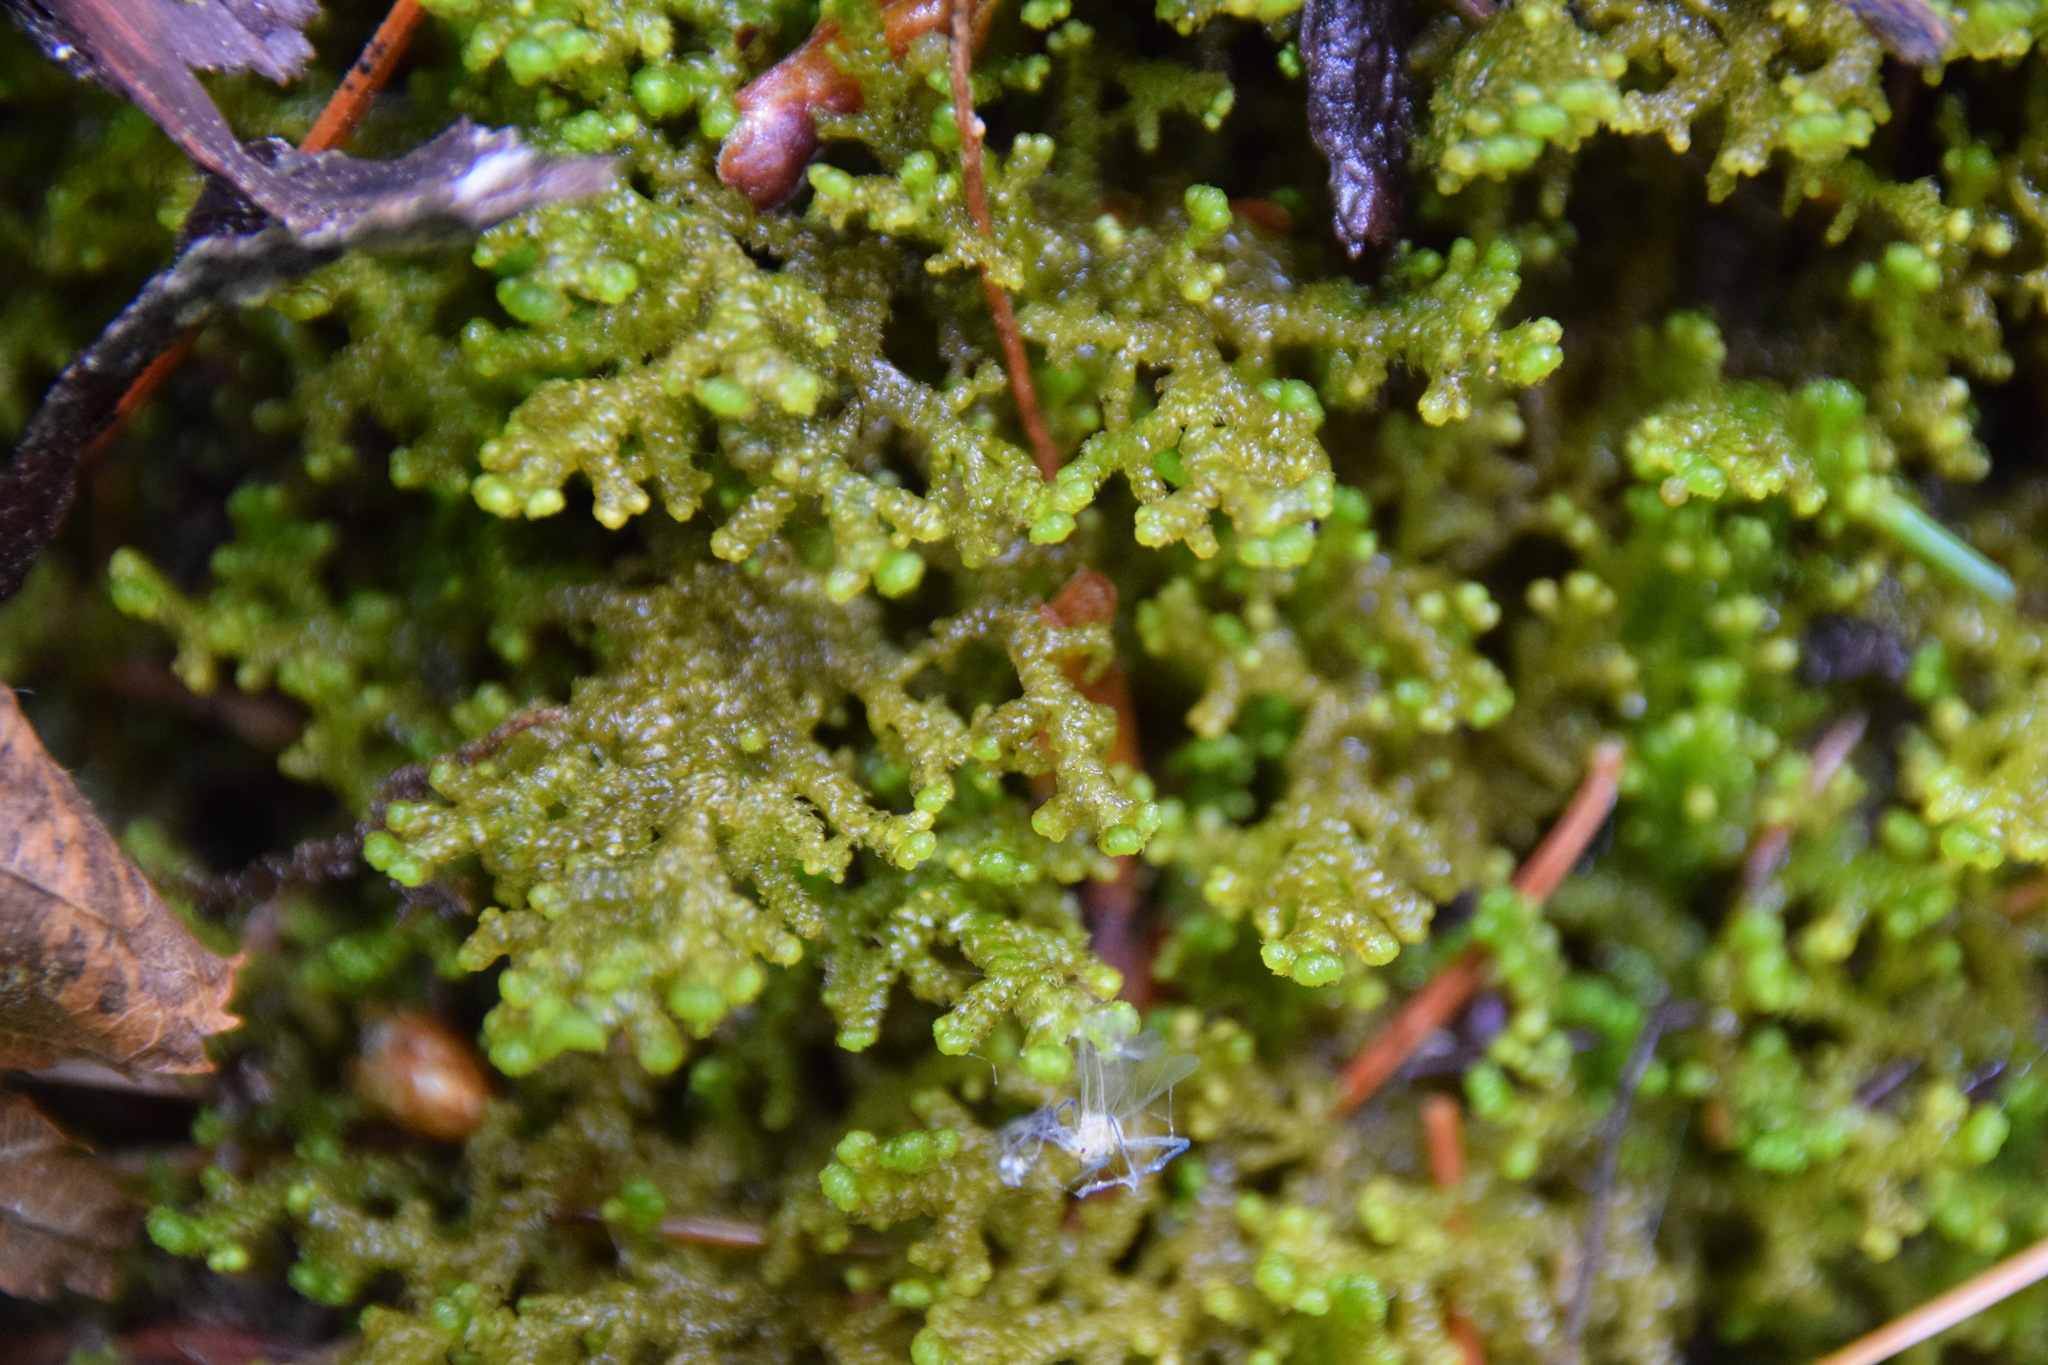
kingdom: Plantae
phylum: Marchantiophyta
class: Jungermanniopsida
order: Ptilidiales
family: Ptilidiaceae
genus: Ptilidium
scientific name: Ptilidium ciliare
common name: Ciliate fringewort
